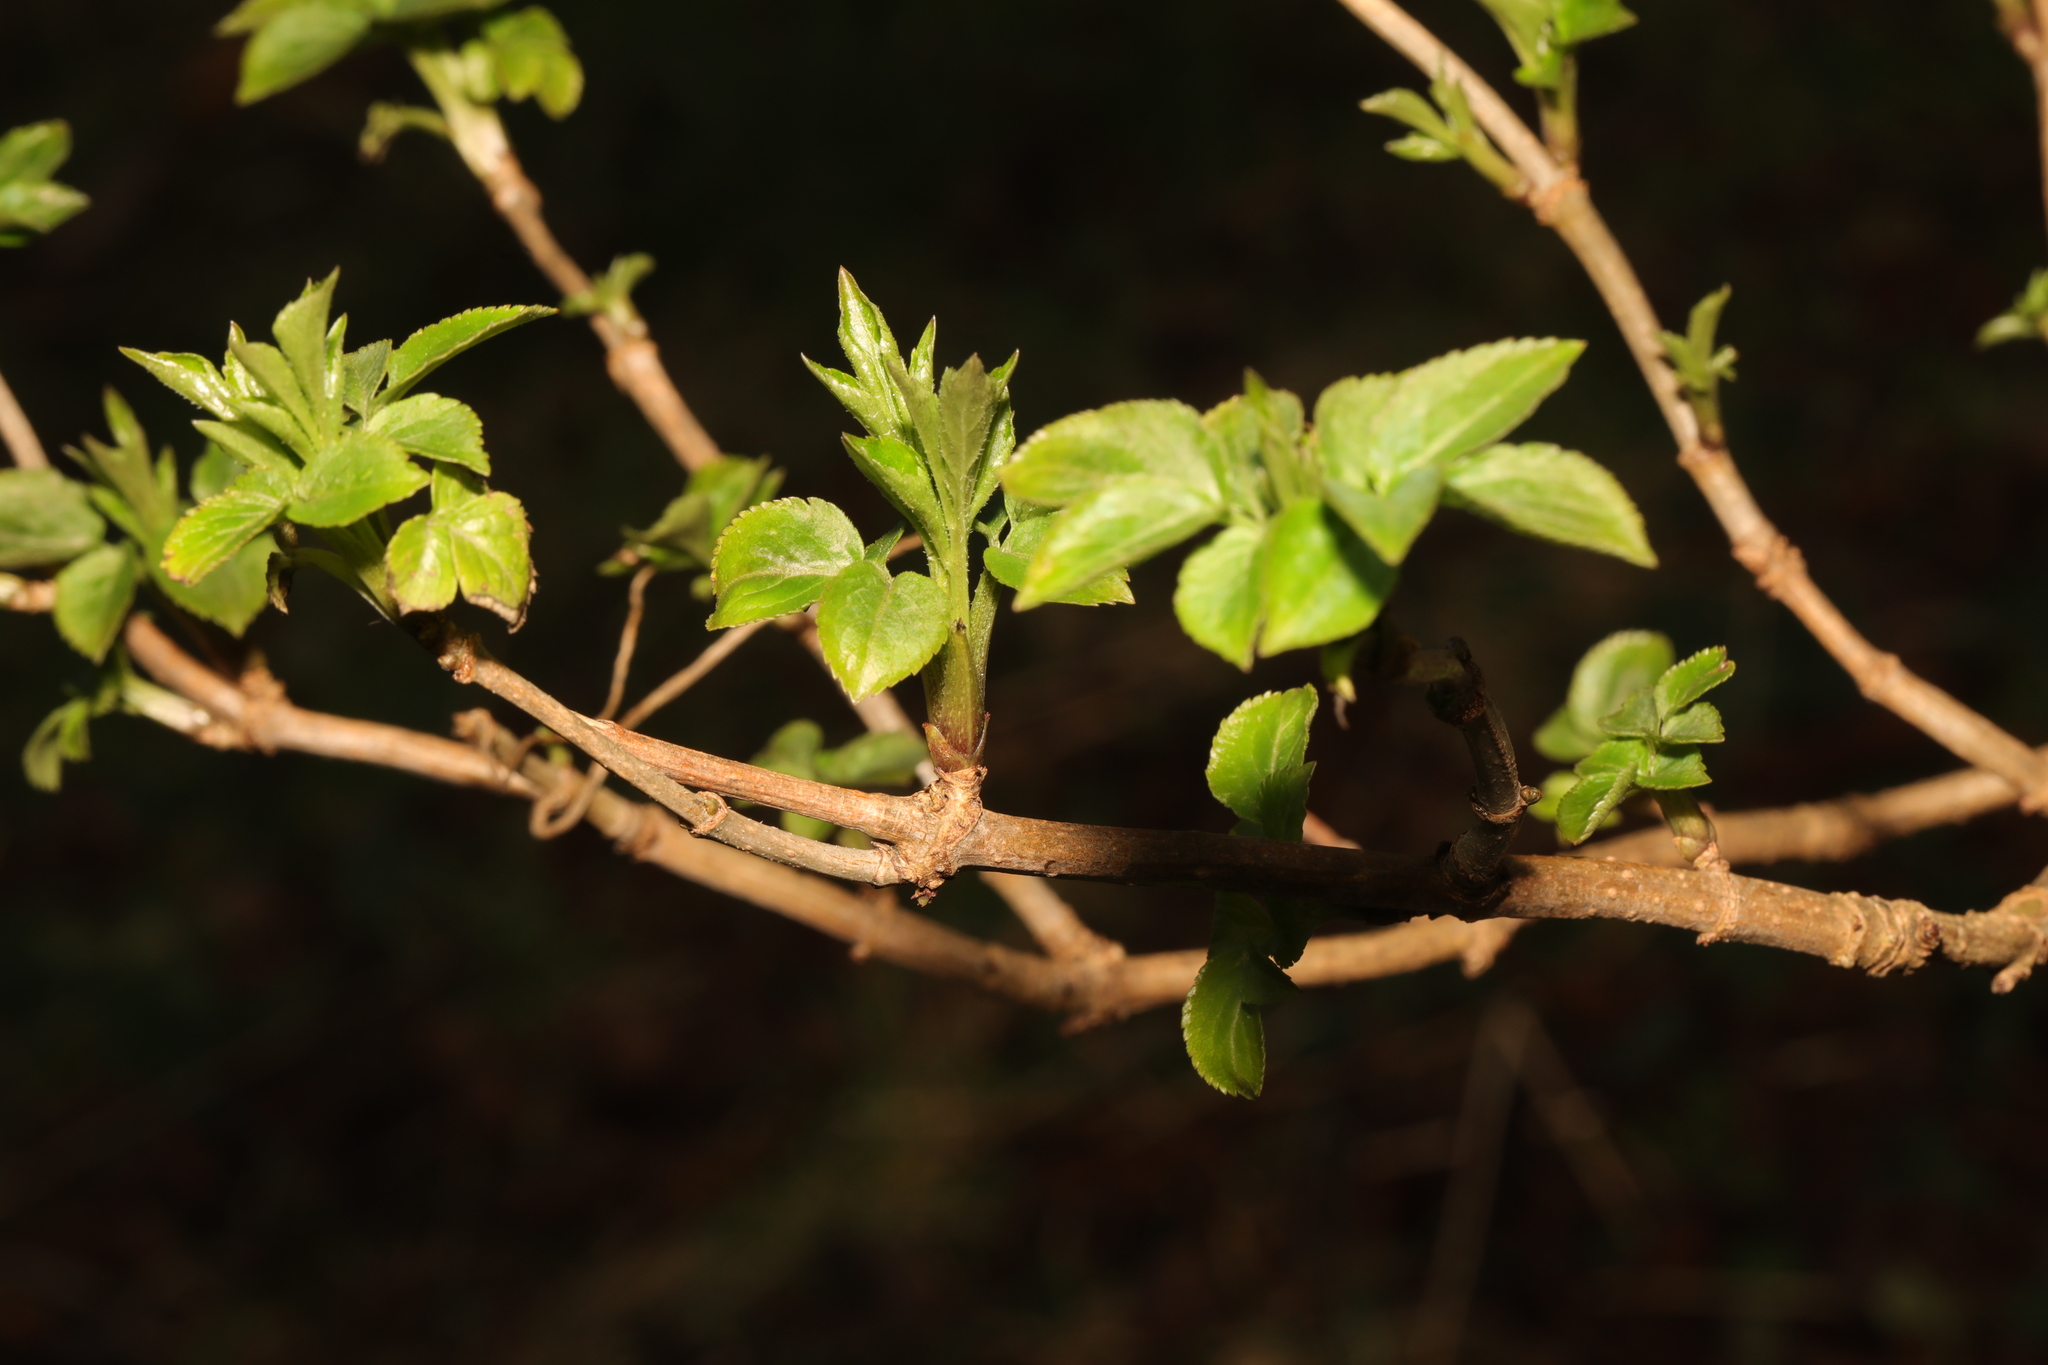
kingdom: Plantae
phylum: Tracheophyta
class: Magnoliopsida
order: Dipsacales
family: Viburnaceae
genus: Sambucus
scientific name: Sambucus nigra
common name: Elder
